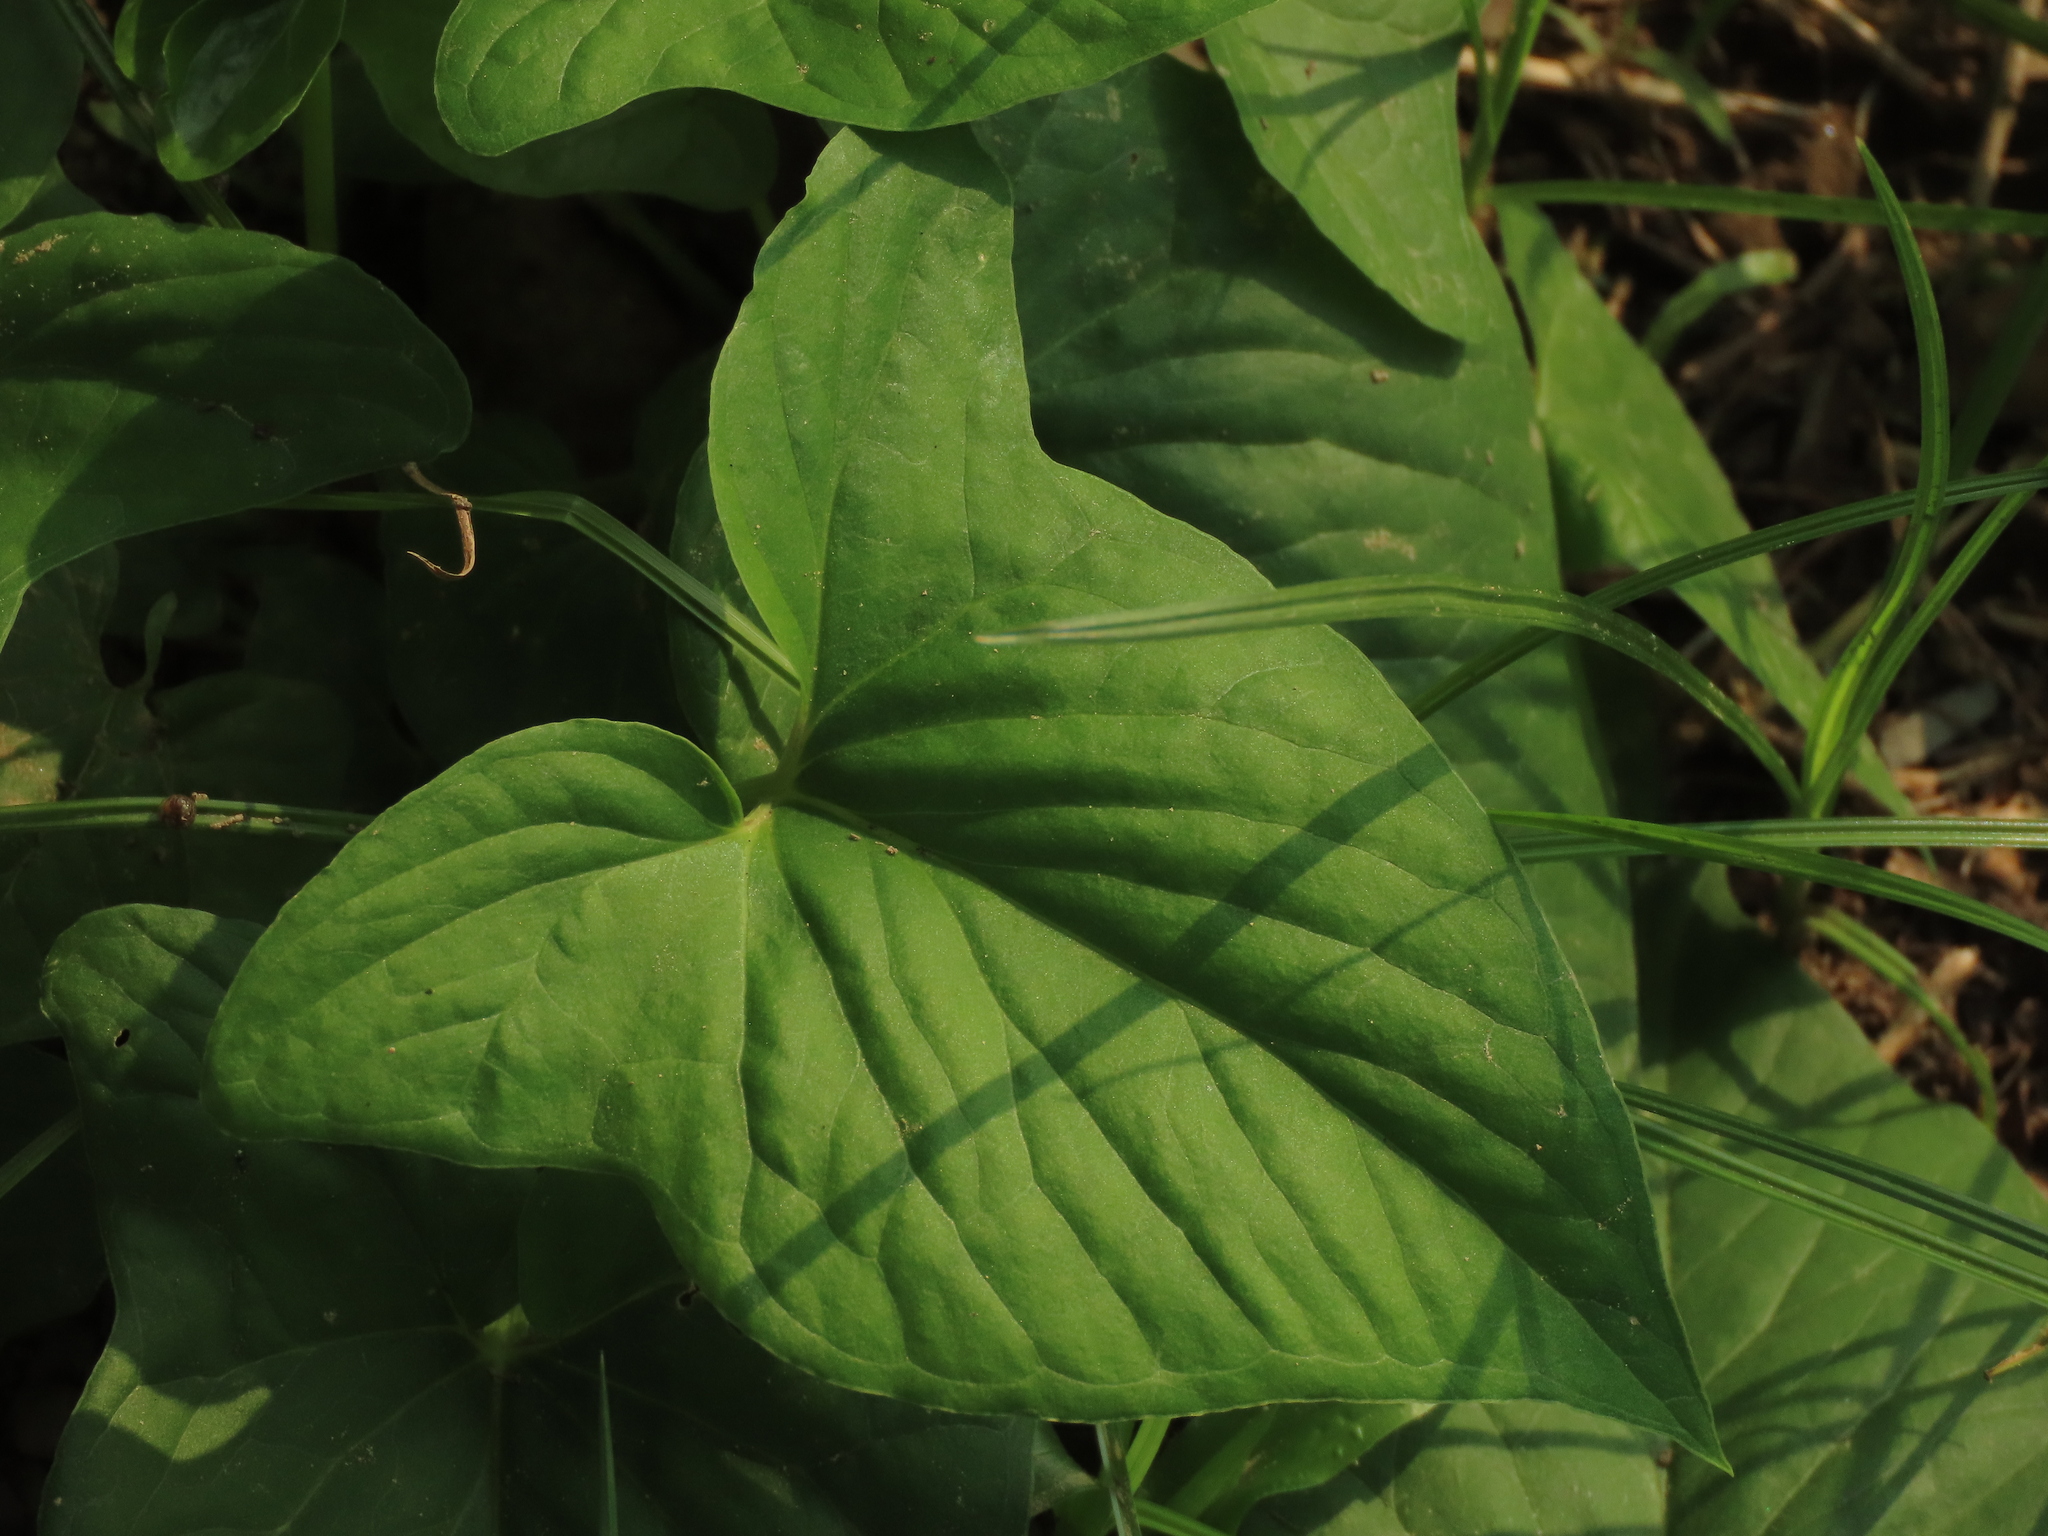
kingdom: Plantae
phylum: Tracheophyta
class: Liliopsida
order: Alismatales
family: Araceae
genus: Typhonium
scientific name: Typhonium roxburghii
